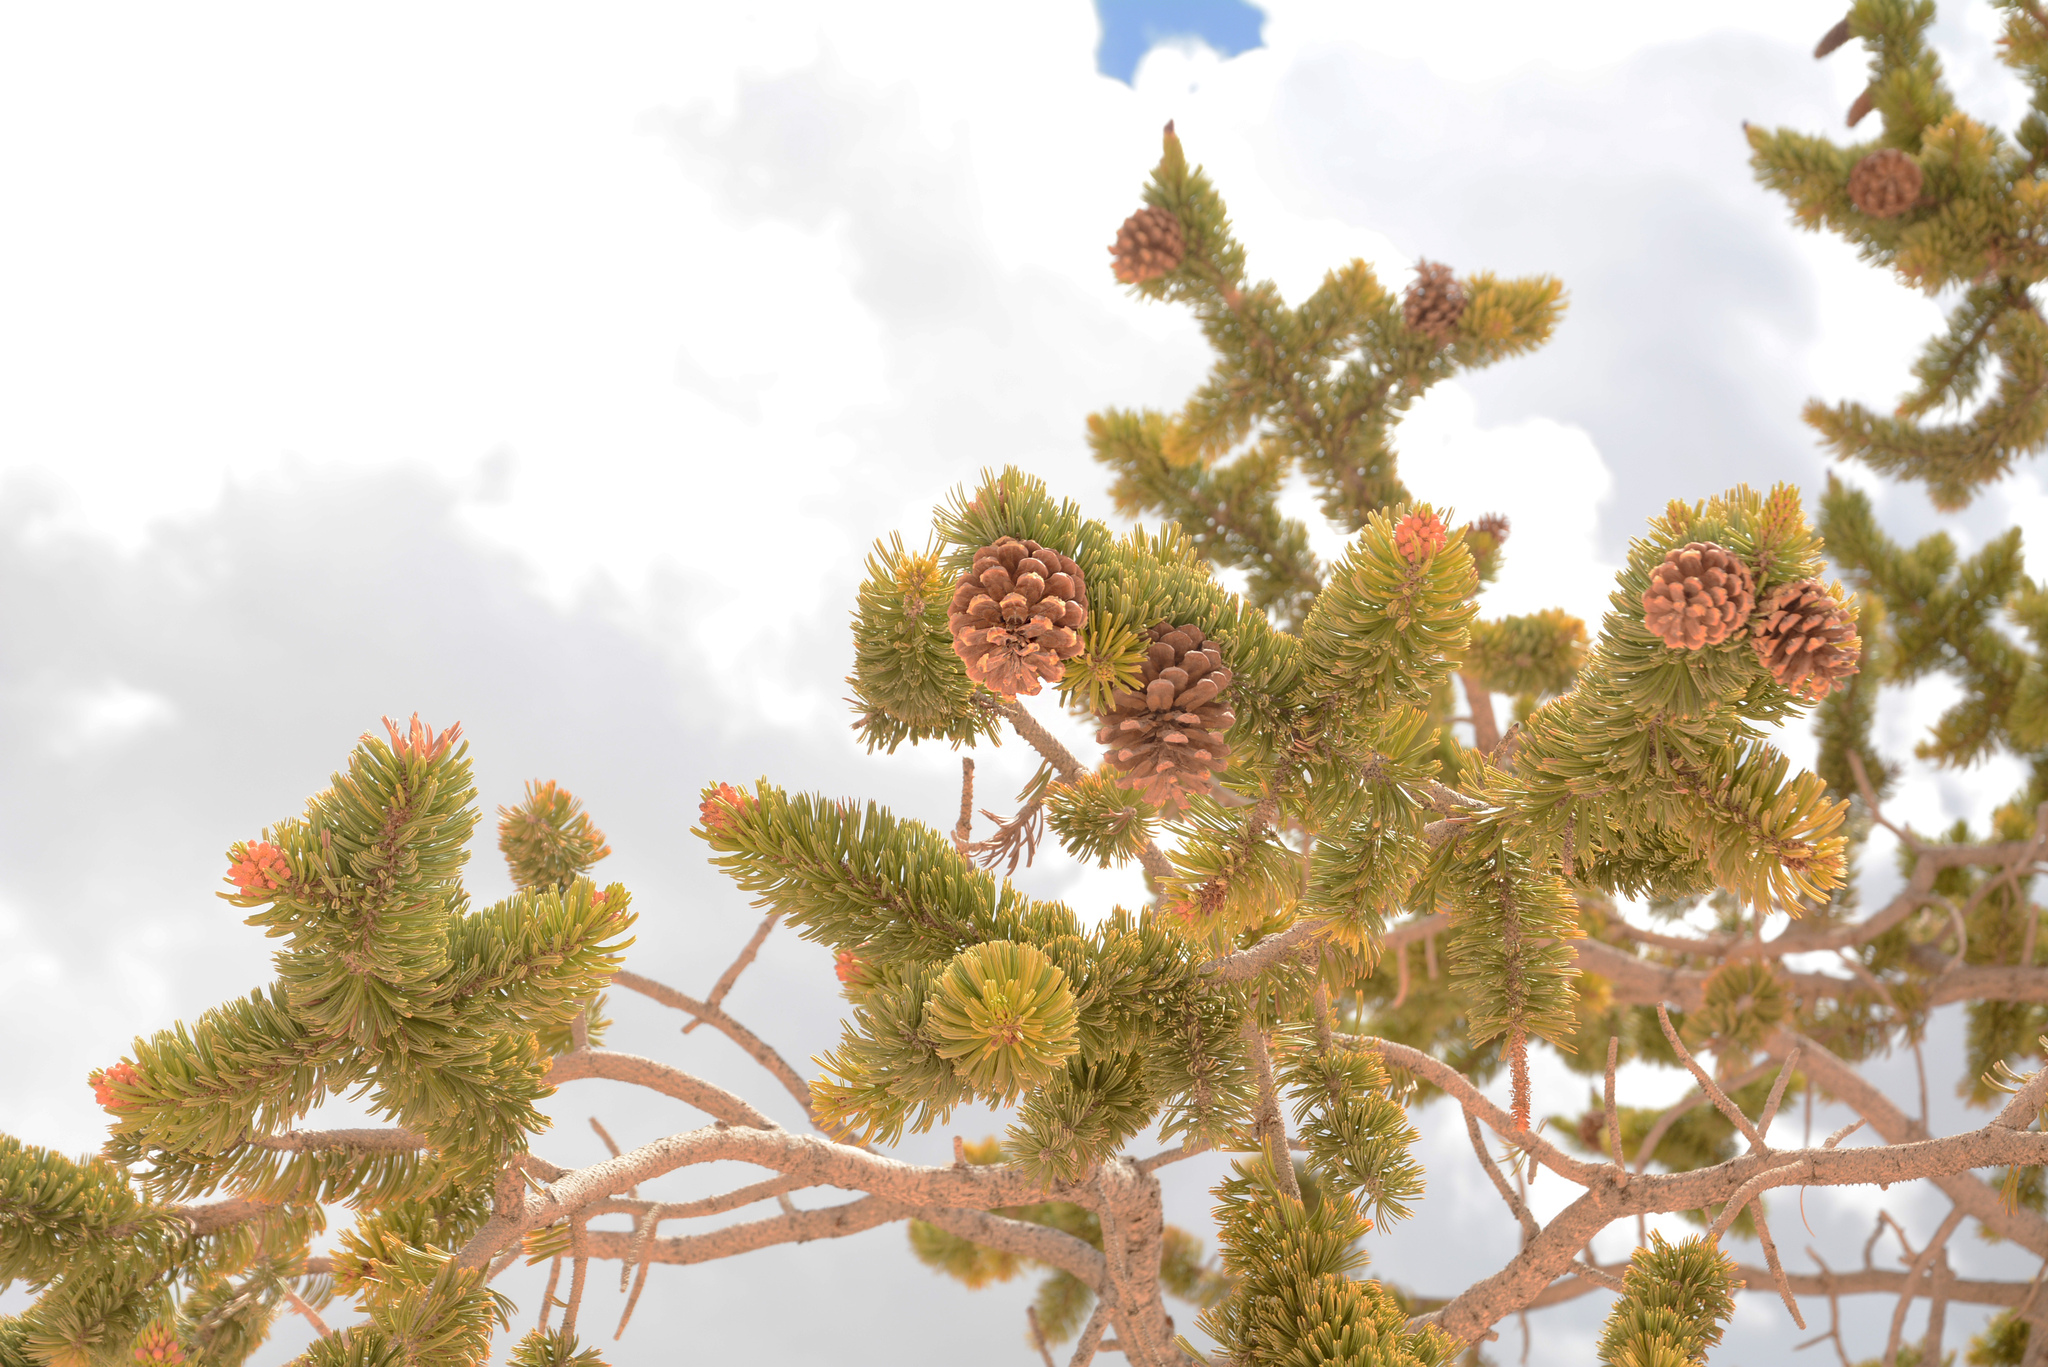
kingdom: Plantae
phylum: Tracheophyta
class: Pinopsida
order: Pinales
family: Pinaceae
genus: Pinus
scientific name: Pinus longaeva
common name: Intermountain bristlecone pine
